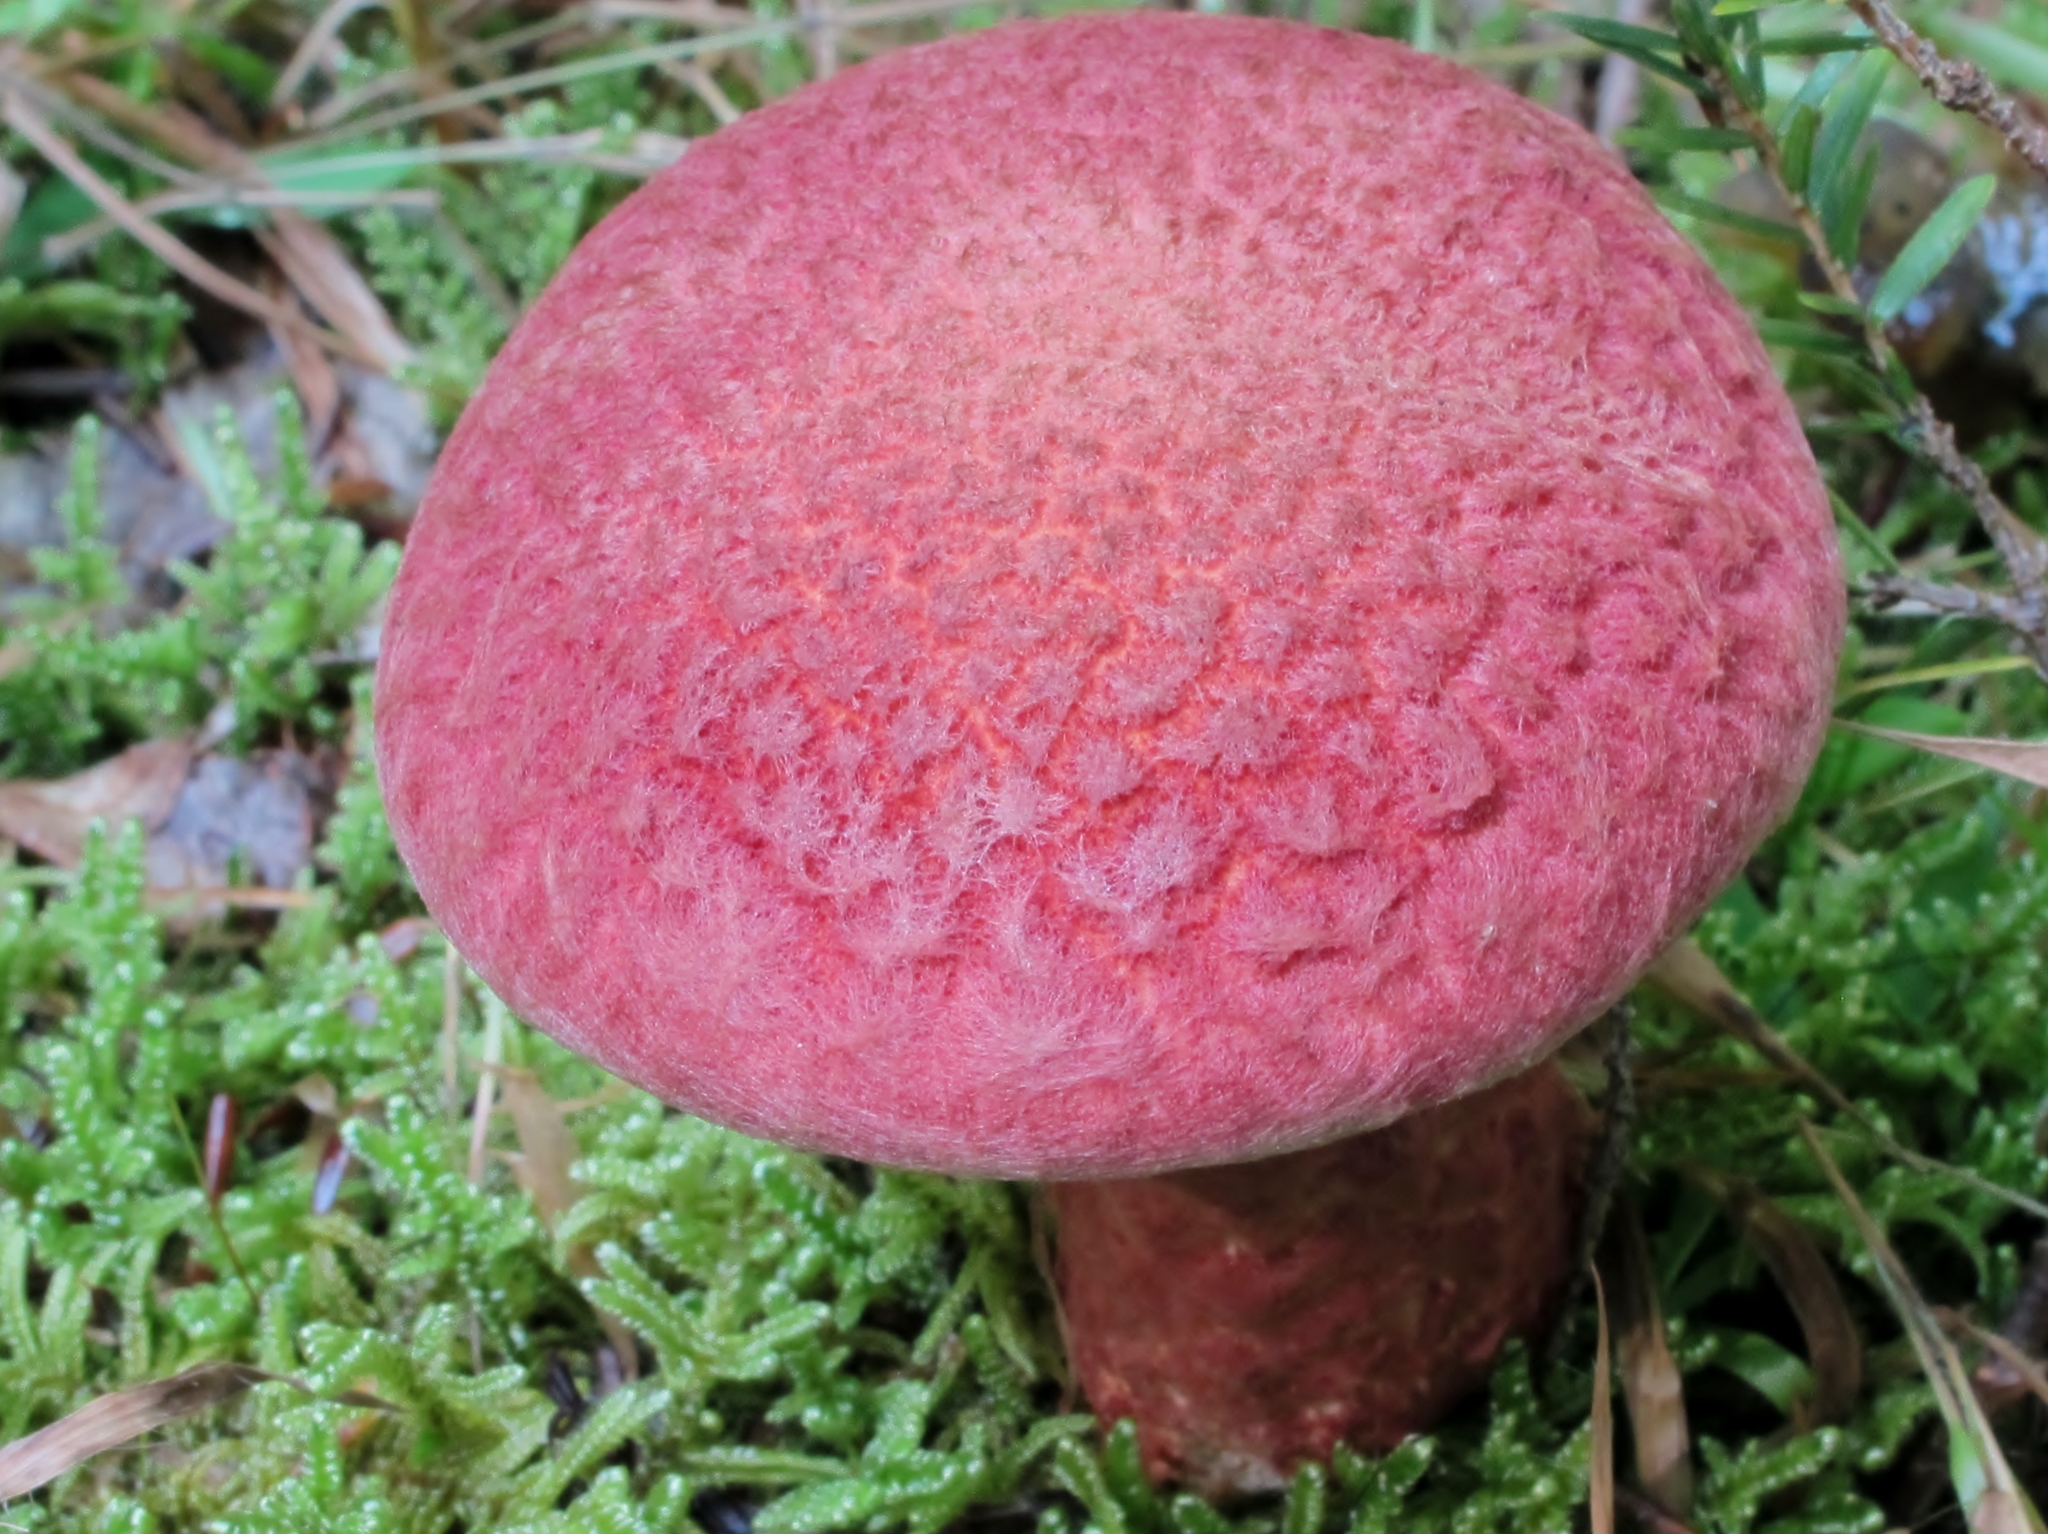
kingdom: Fungi
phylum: Basidiomycota
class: Agaricomycetes
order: Boletales
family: Suillaceae
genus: Suillus
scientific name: Suillus spraguei
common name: Painted suillus
